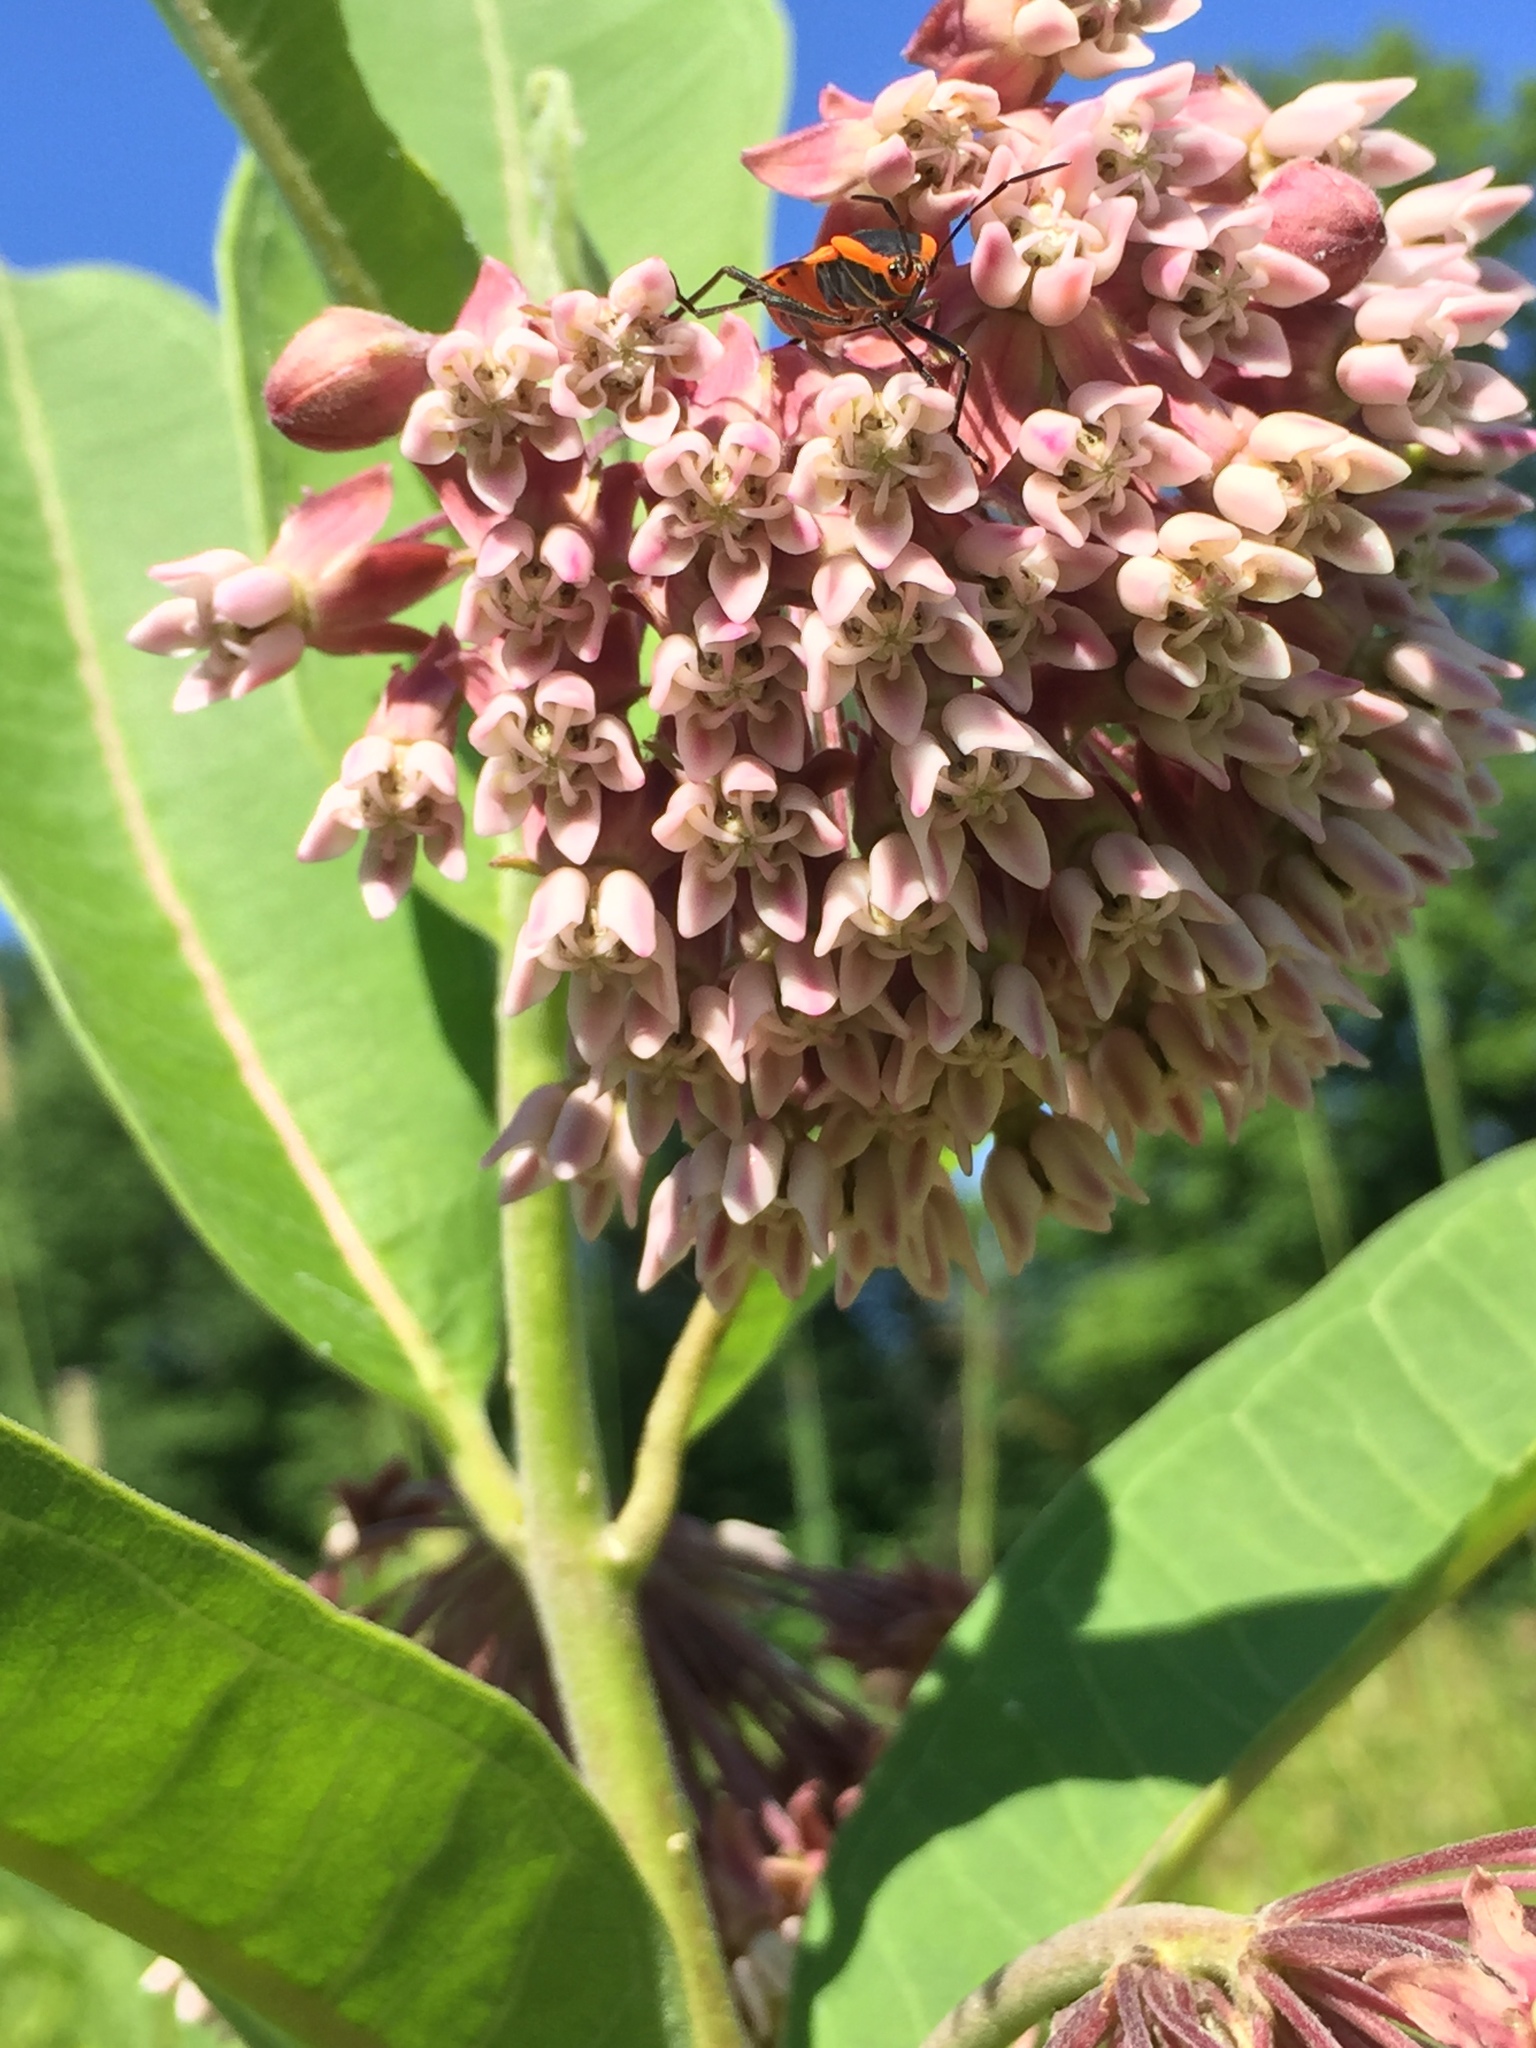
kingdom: Plantae
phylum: Tracheophyta
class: Magnoliopsida
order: Gentianales
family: Apocynaceae
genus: Asclepias
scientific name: Asclepias syriaca
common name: Common milkweed
